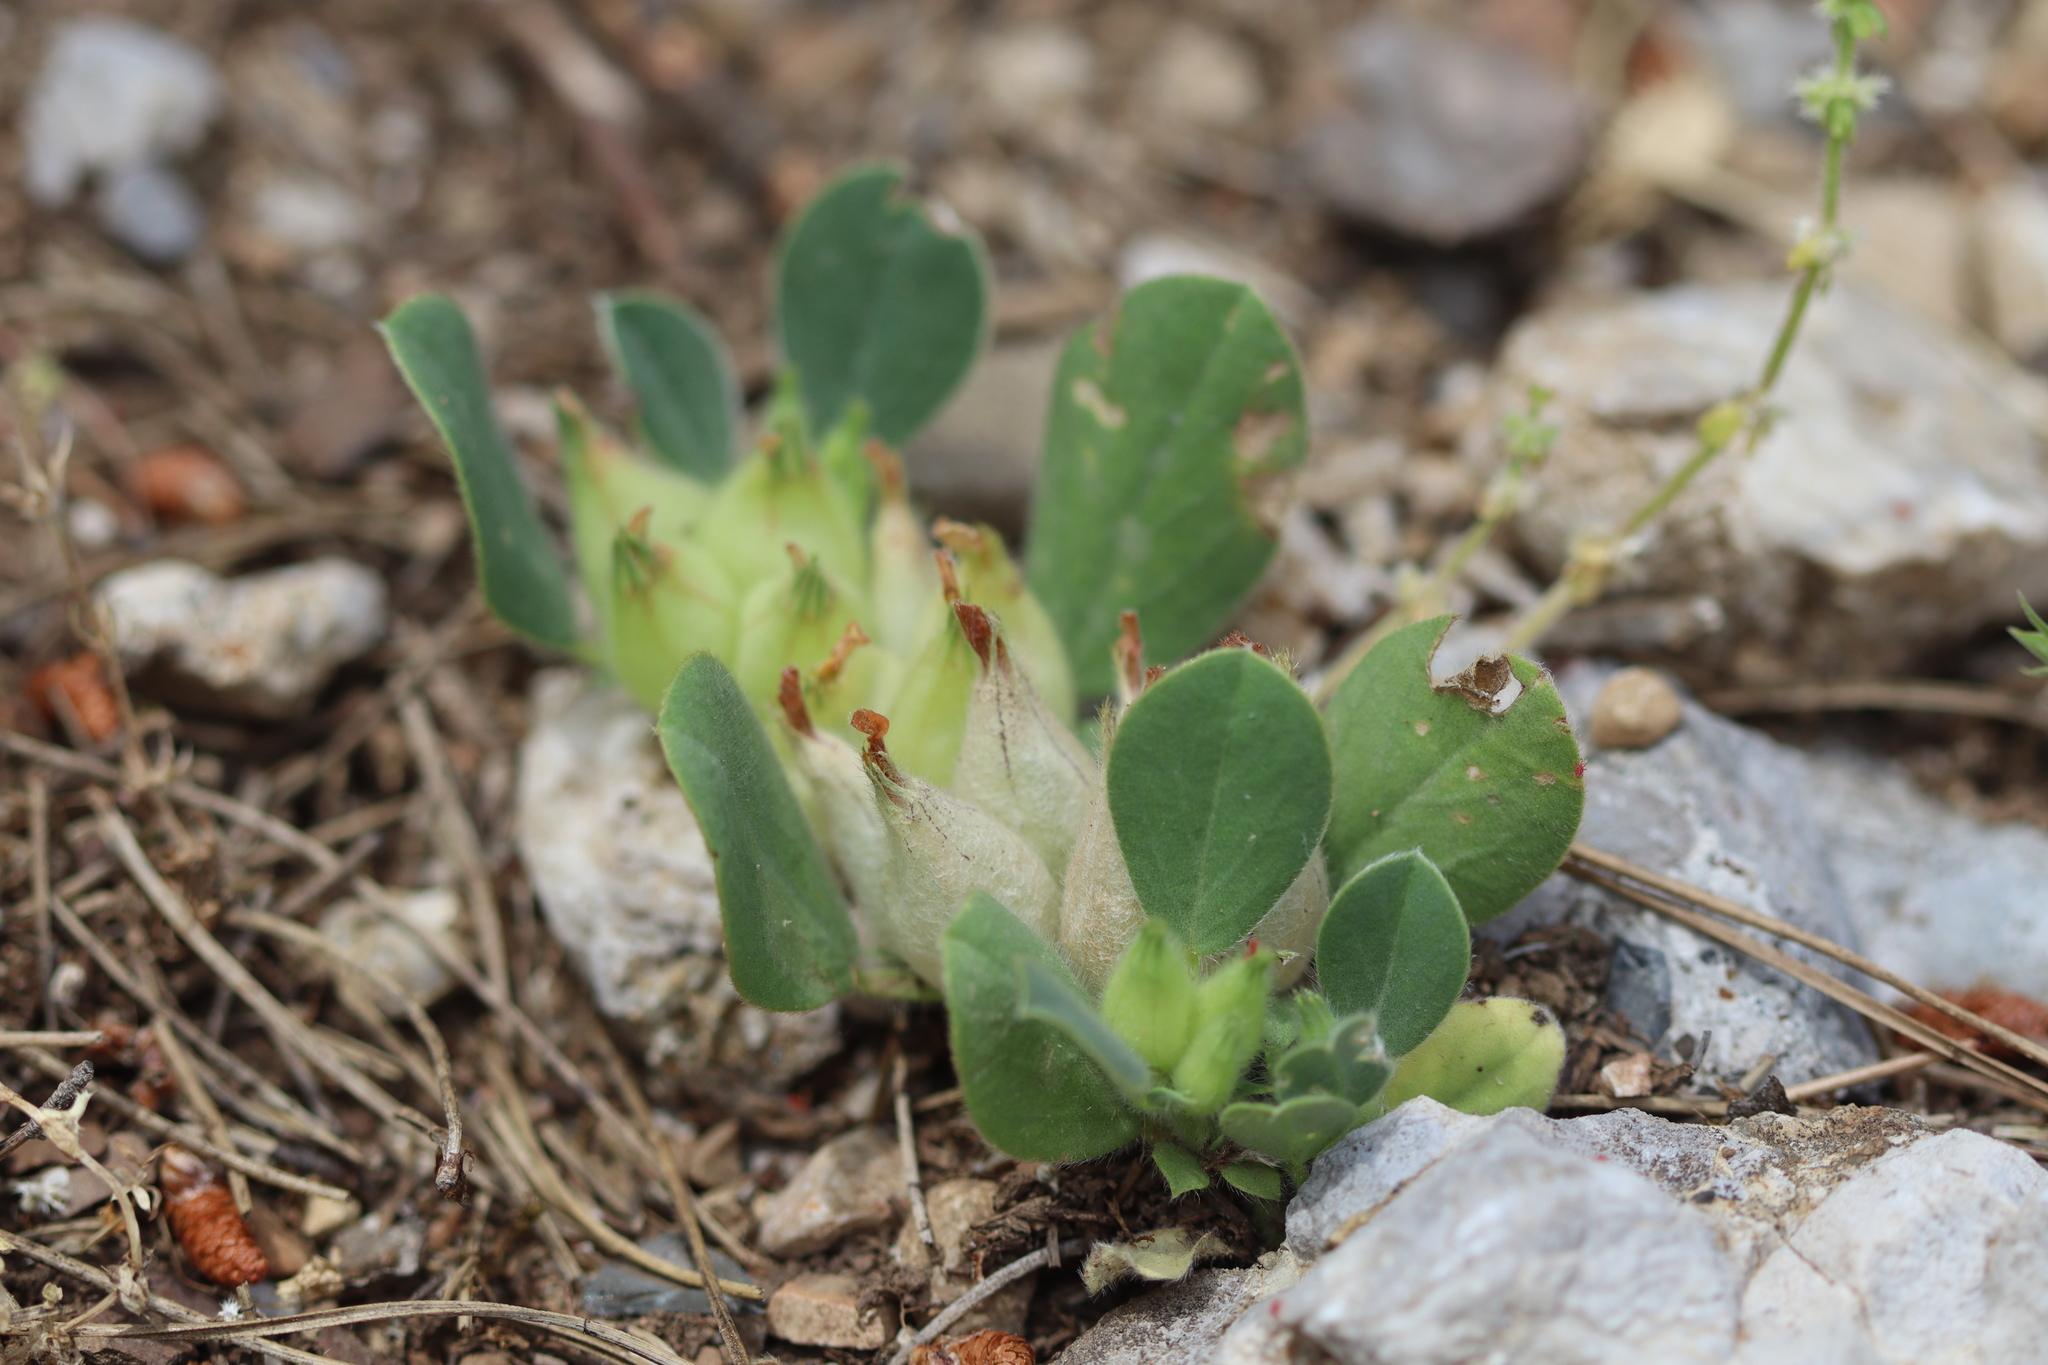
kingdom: Plantae
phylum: Tracheophyta
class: Magnoliopsida
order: Fabales
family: Fabaceae
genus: Tripodion
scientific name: Tripodion tetraphyllum
